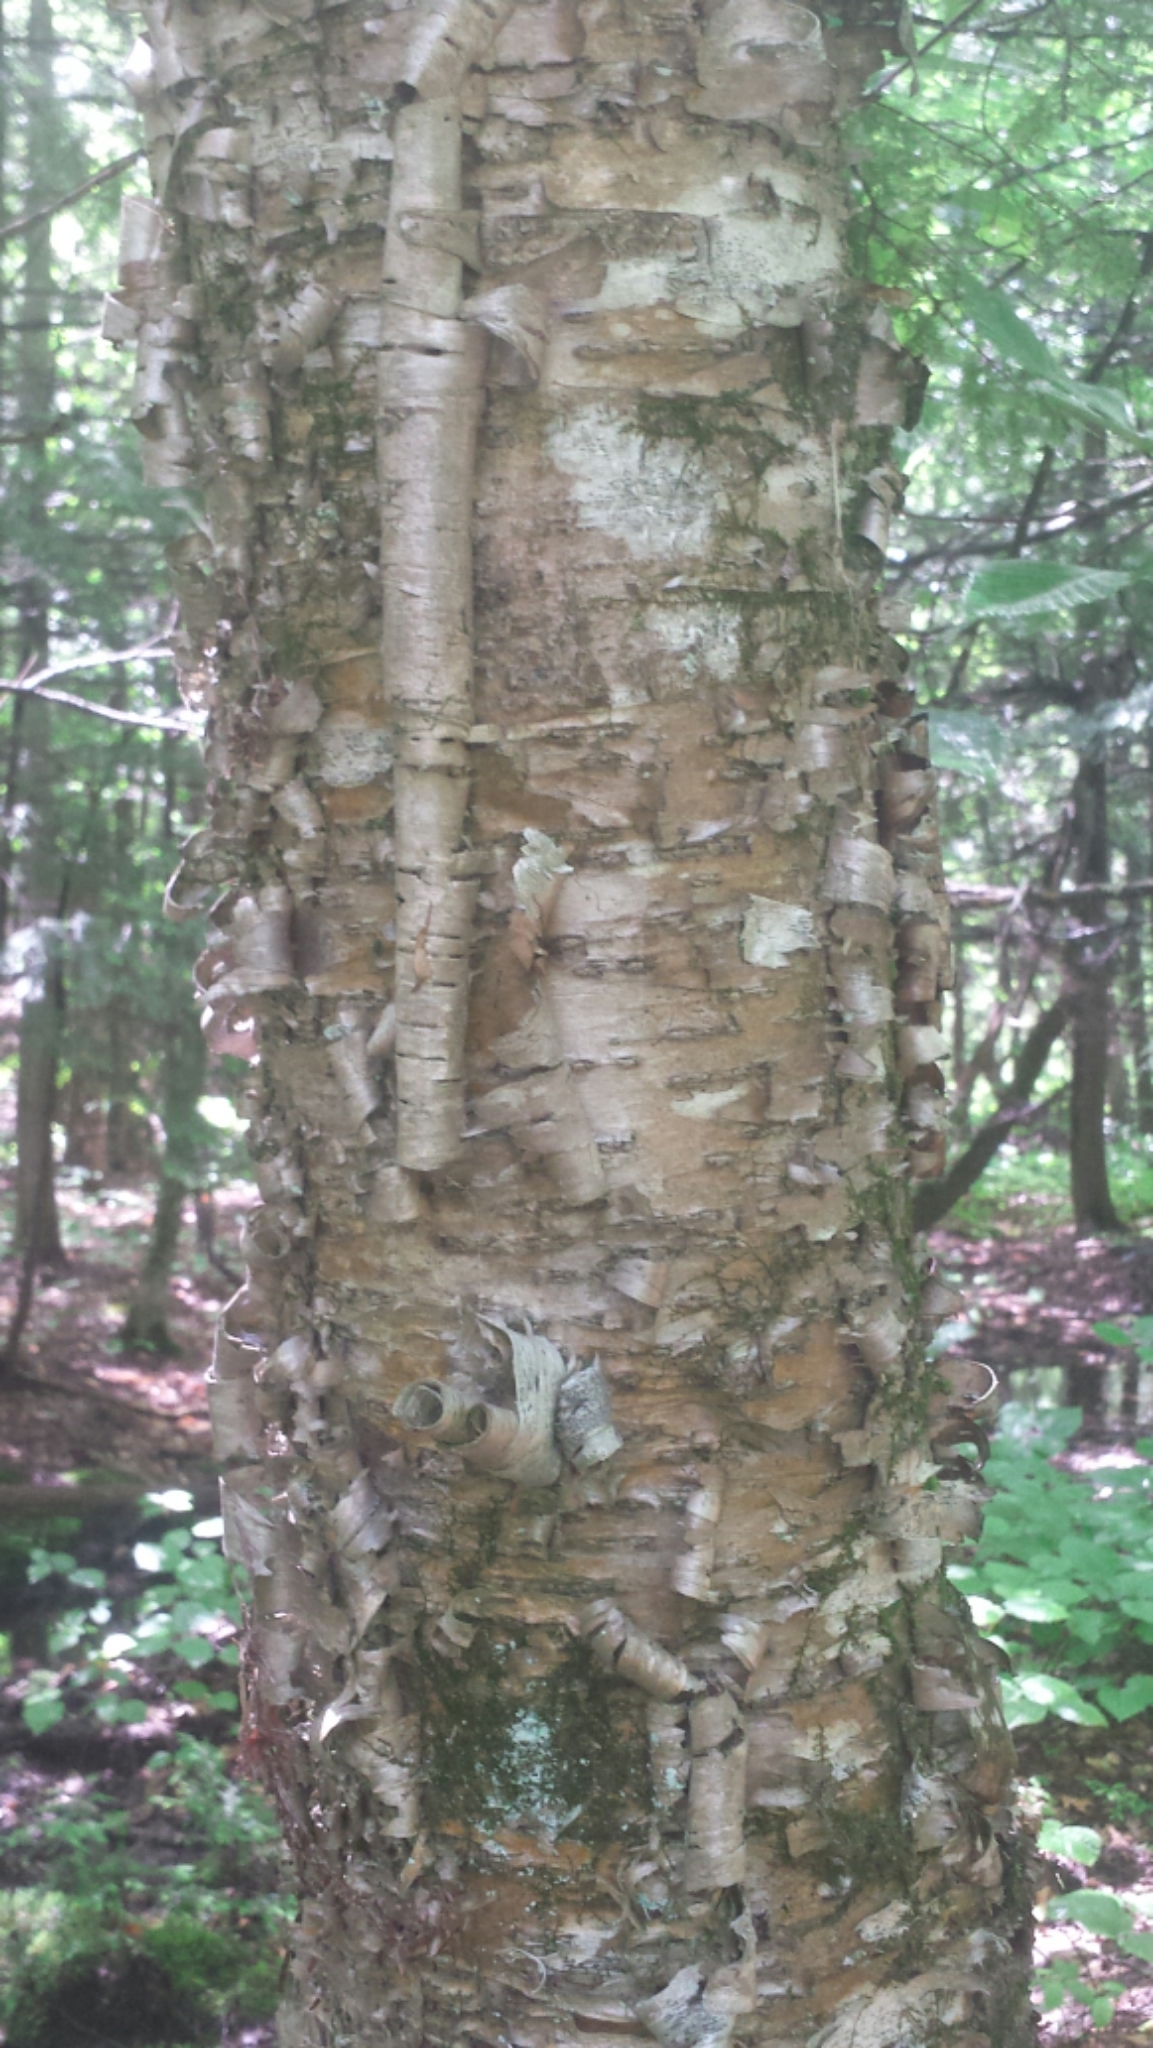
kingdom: Plantae
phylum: Tracheophyta
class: Magnoliopsida
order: Fagales
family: Betulaceae
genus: Betula
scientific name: Betula alleghaniensis
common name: Yellow birch
